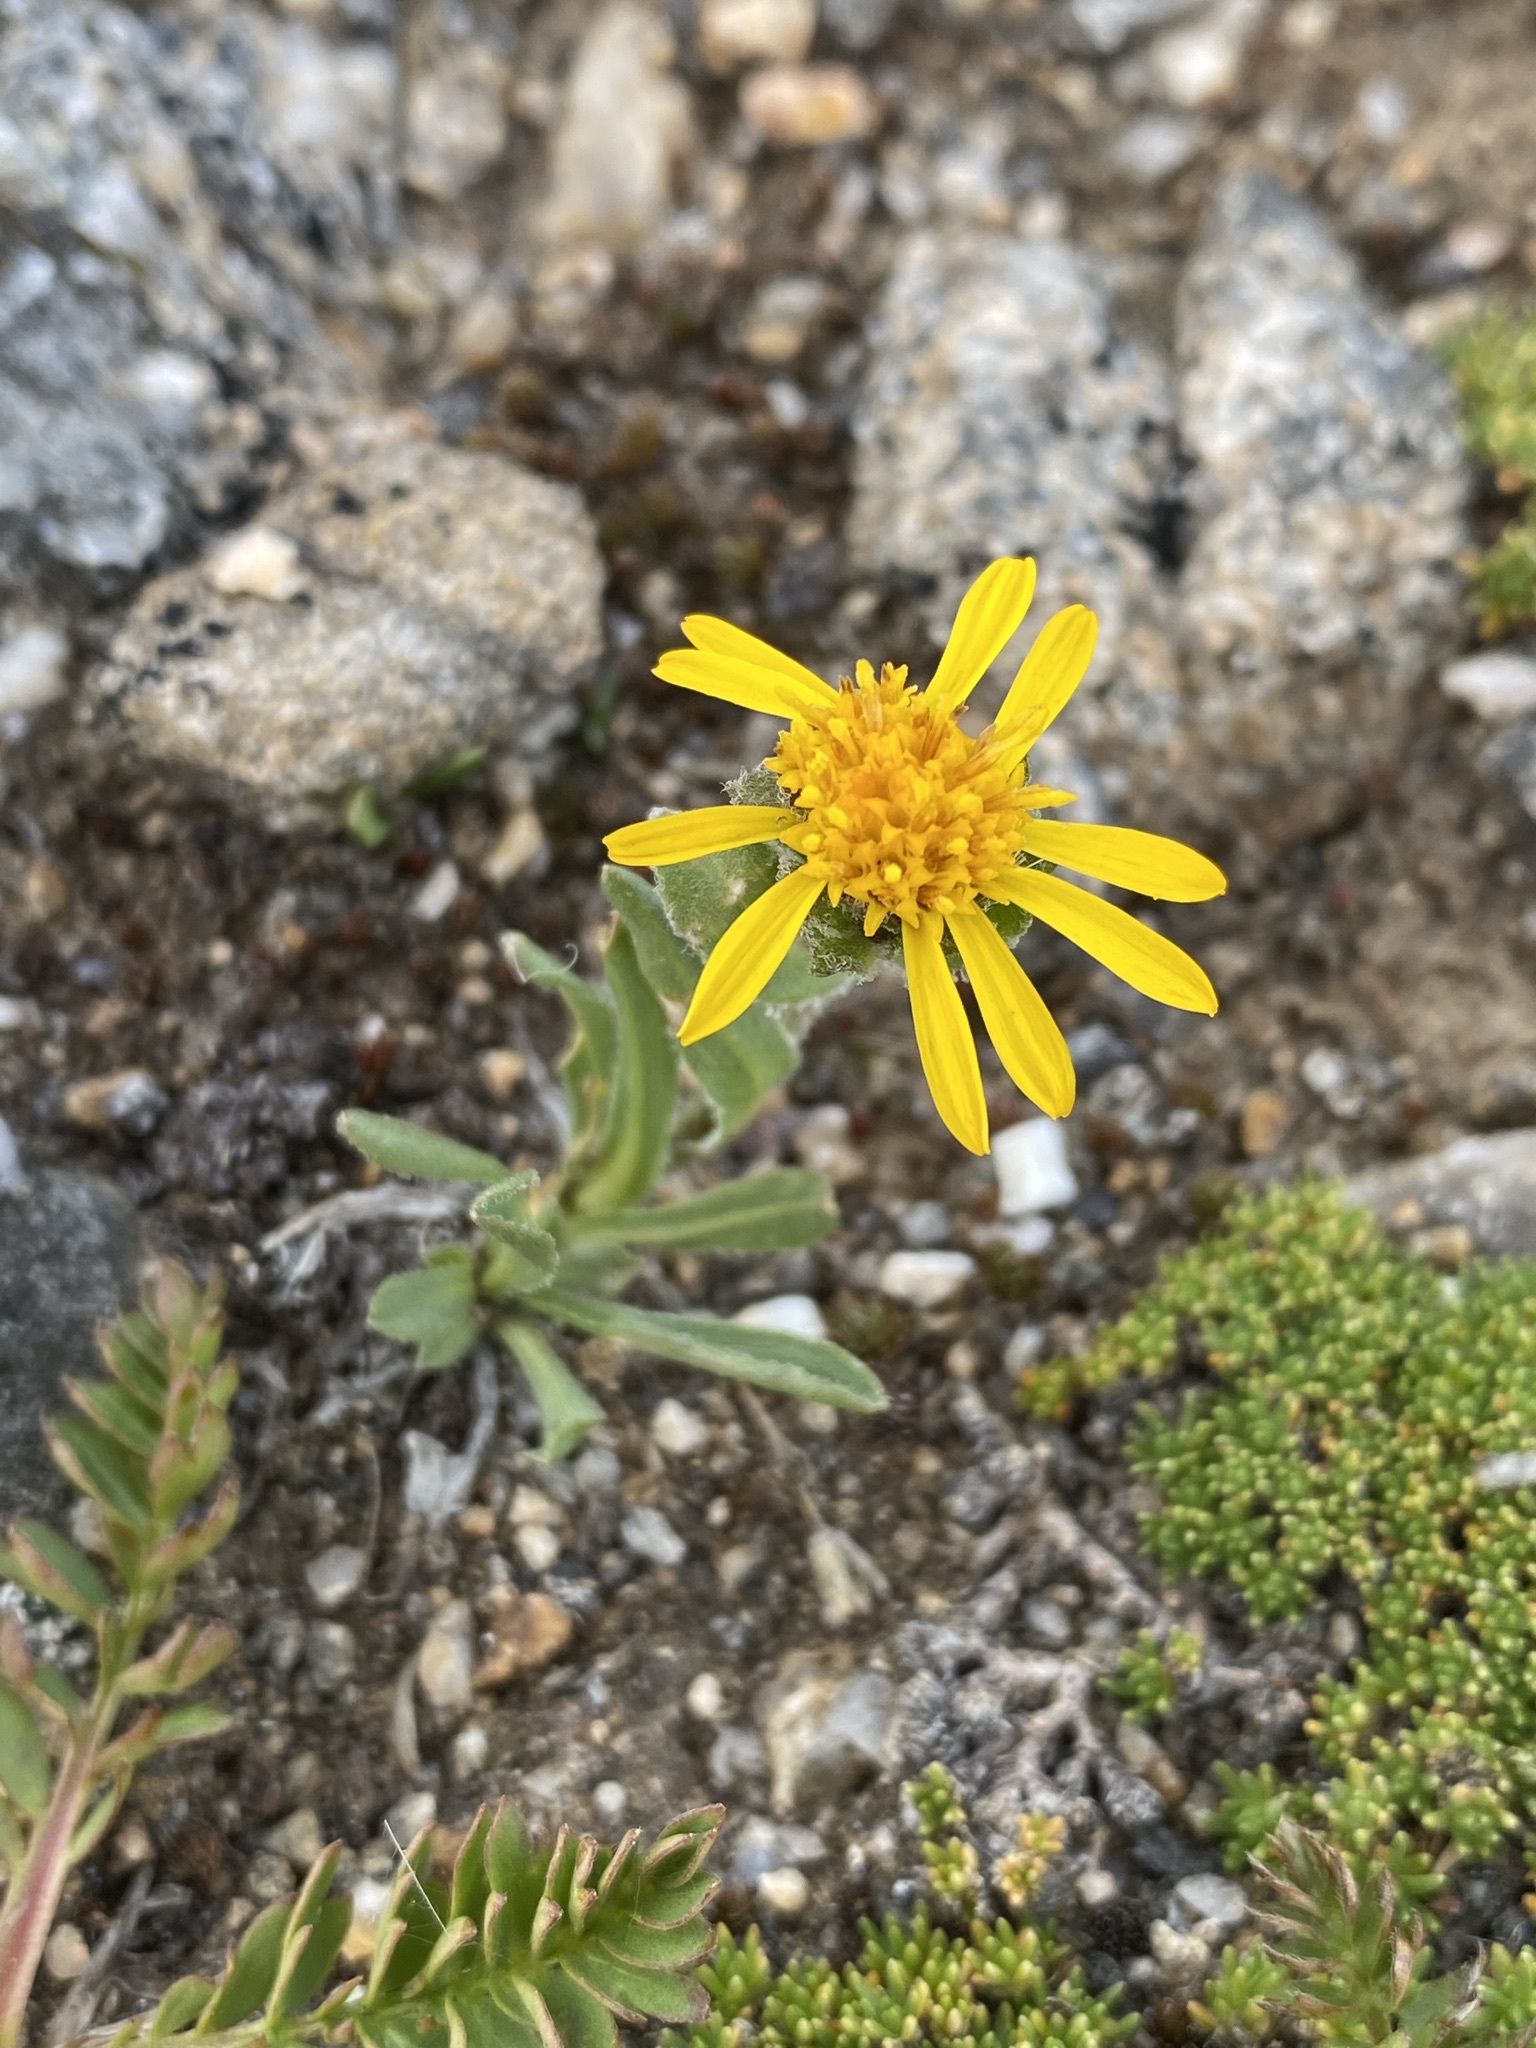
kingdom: Plantae
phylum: Tracheophyta
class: Magnoliopsida
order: Asterales
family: Asteraceae
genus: Tonestus
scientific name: Tonestus pygmaeus
